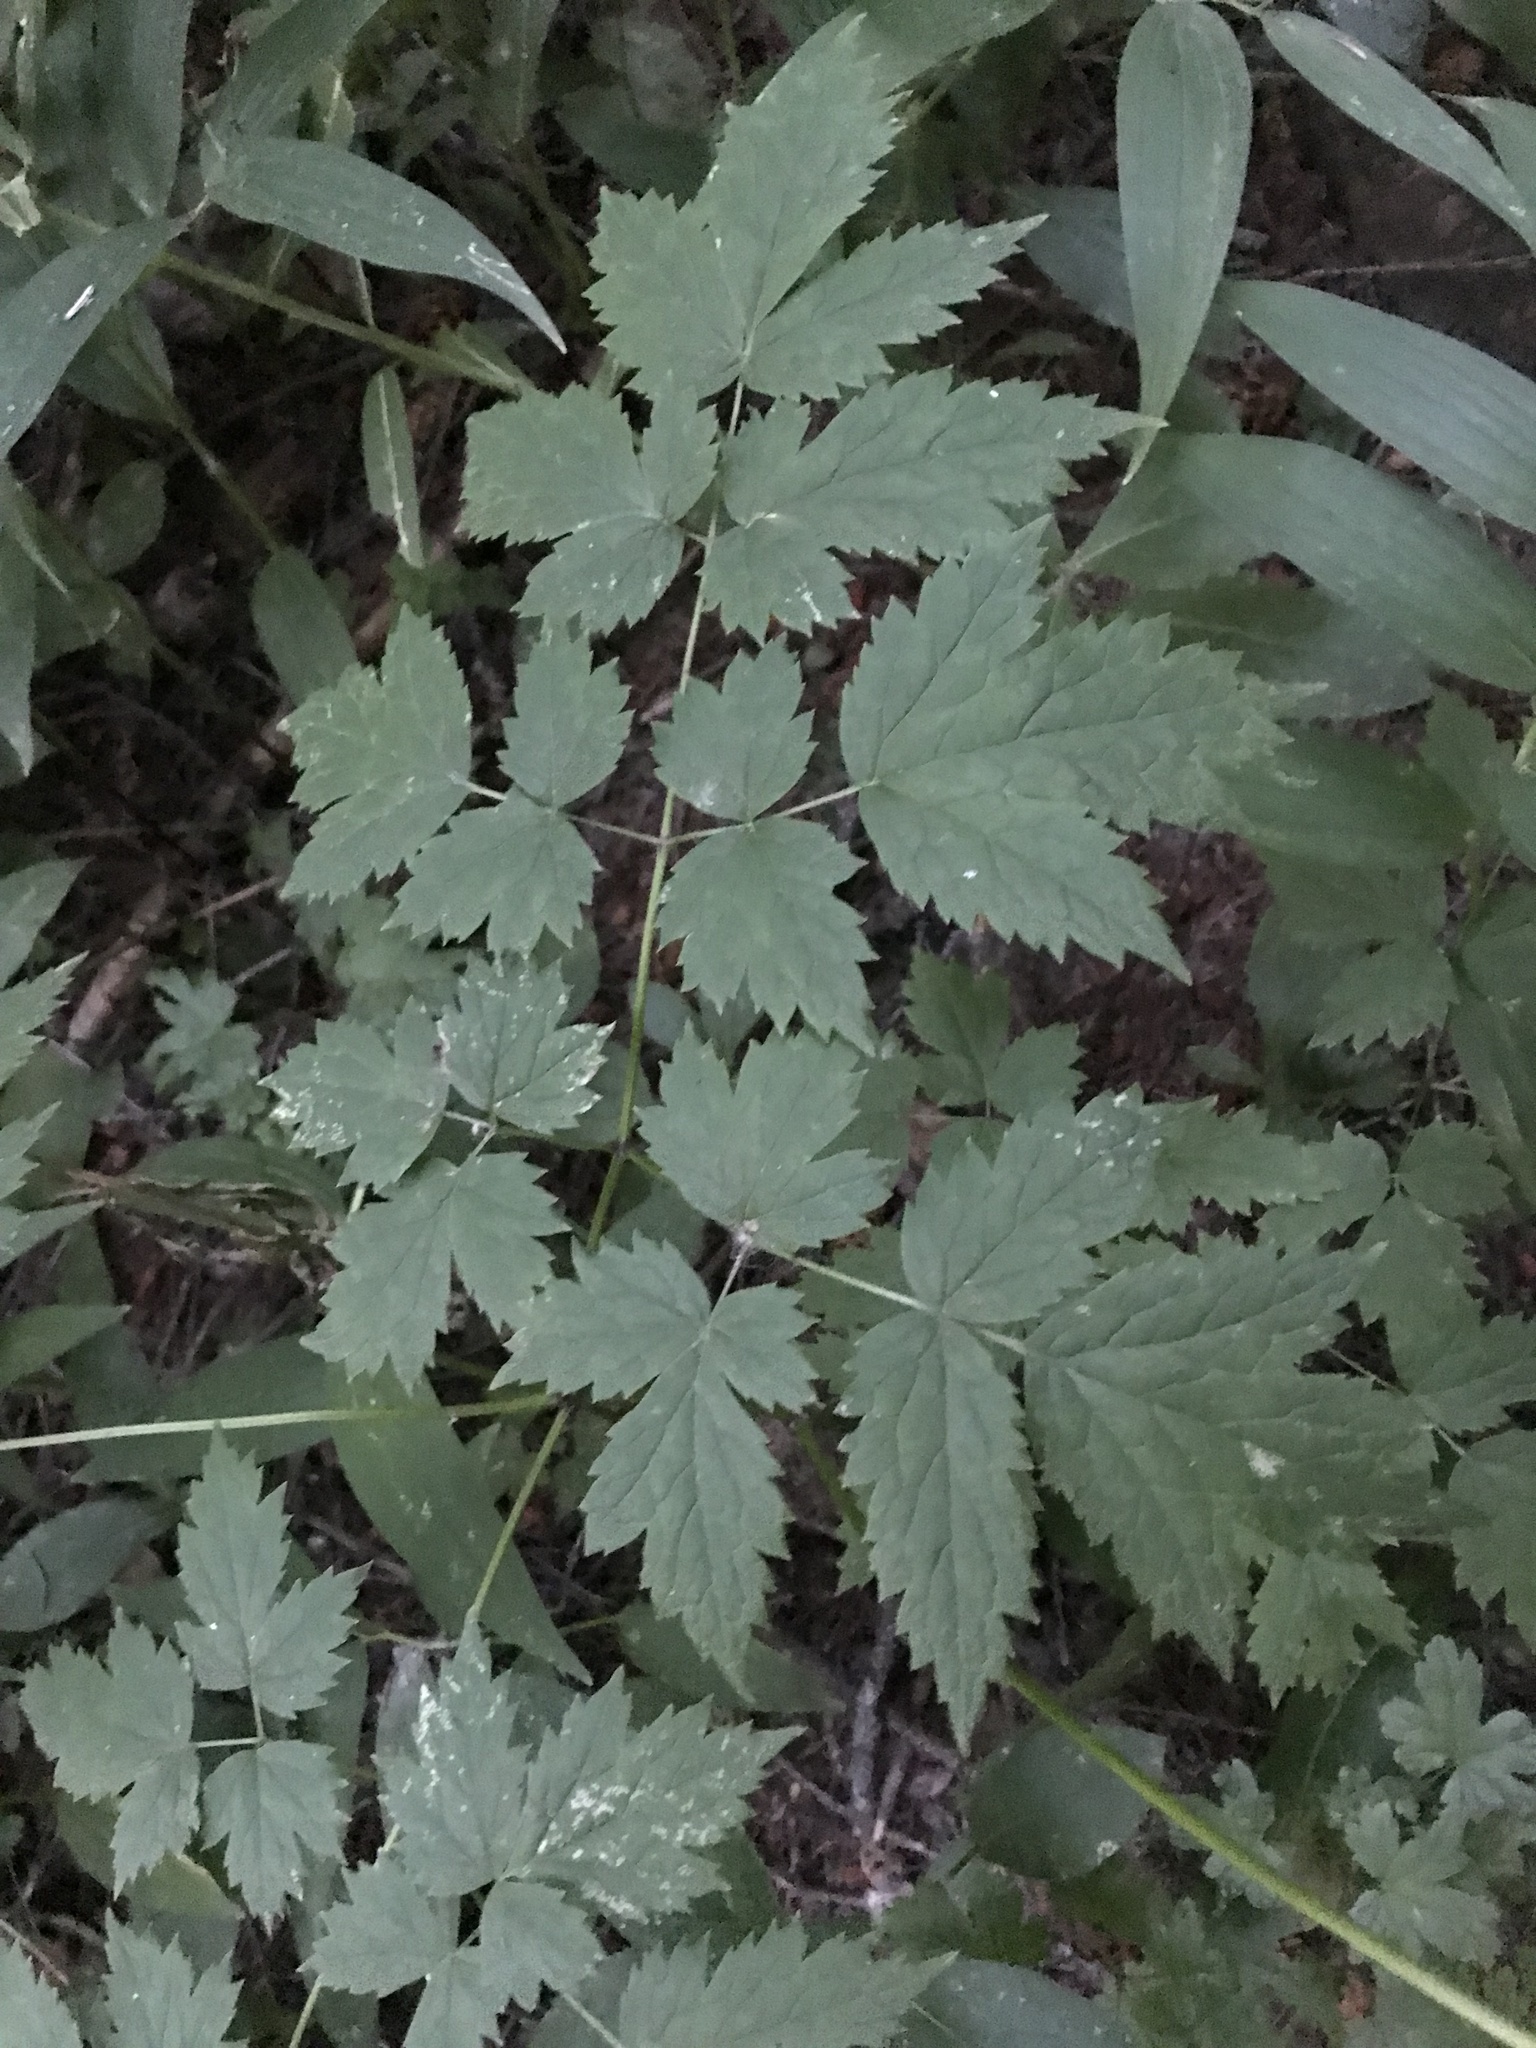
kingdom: Plantae
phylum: Tracheophyta
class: Magnoliopsida
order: Ranunculales
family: Ranunculaceae
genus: Actaea
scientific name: Actaea rubra
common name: Red baneberry
